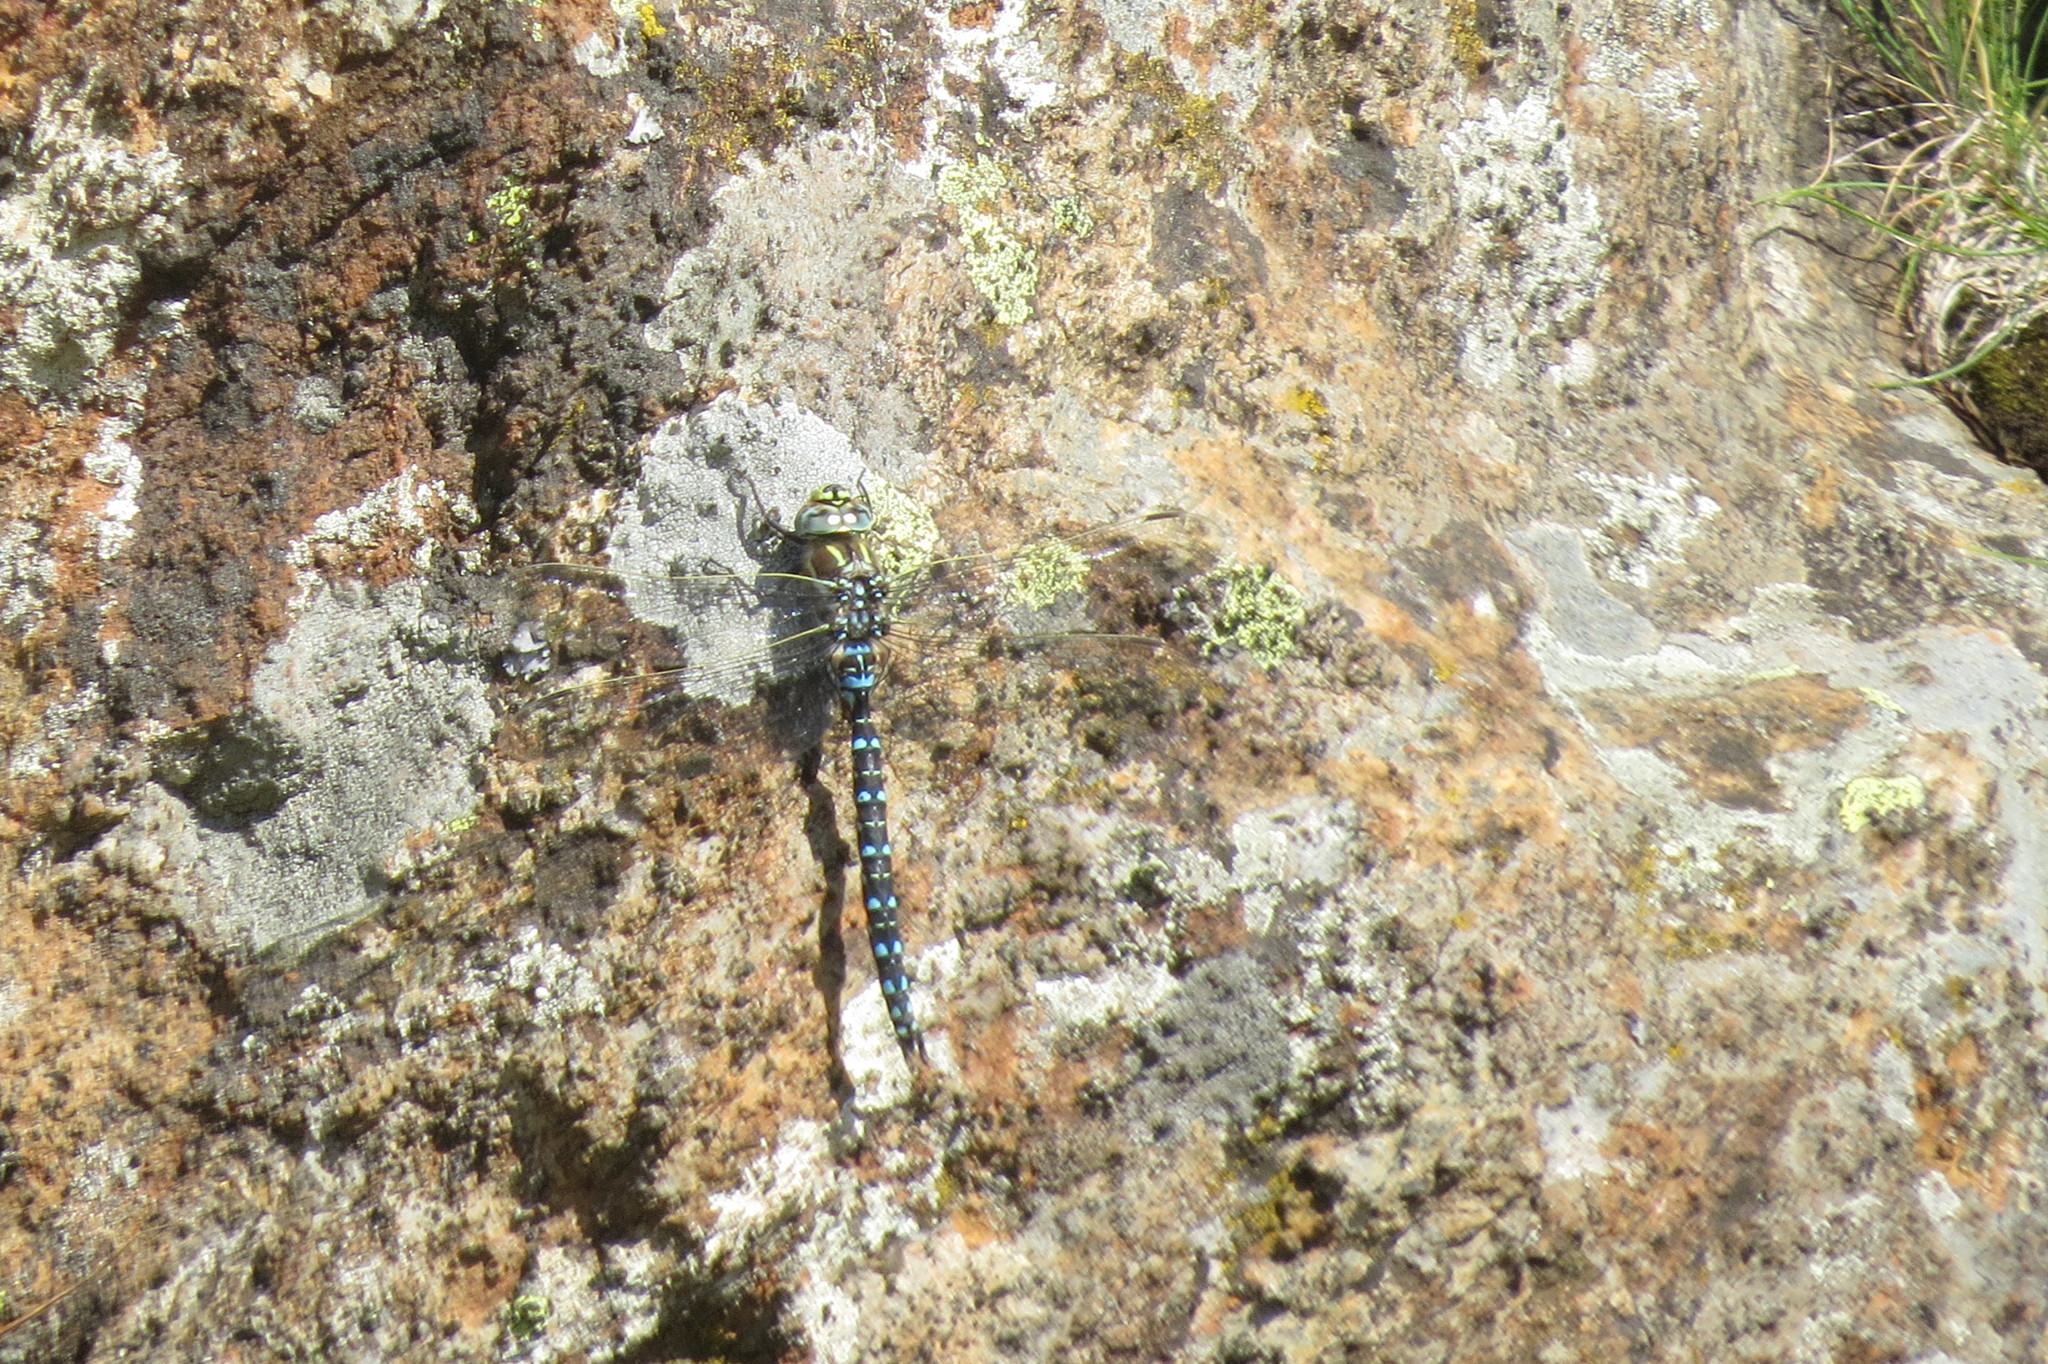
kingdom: Animalia
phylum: Arthropoda
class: Insecta
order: Odonata
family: Aeshnidae
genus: Aeshna
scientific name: Aeshna juncea
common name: Moorland hawker
